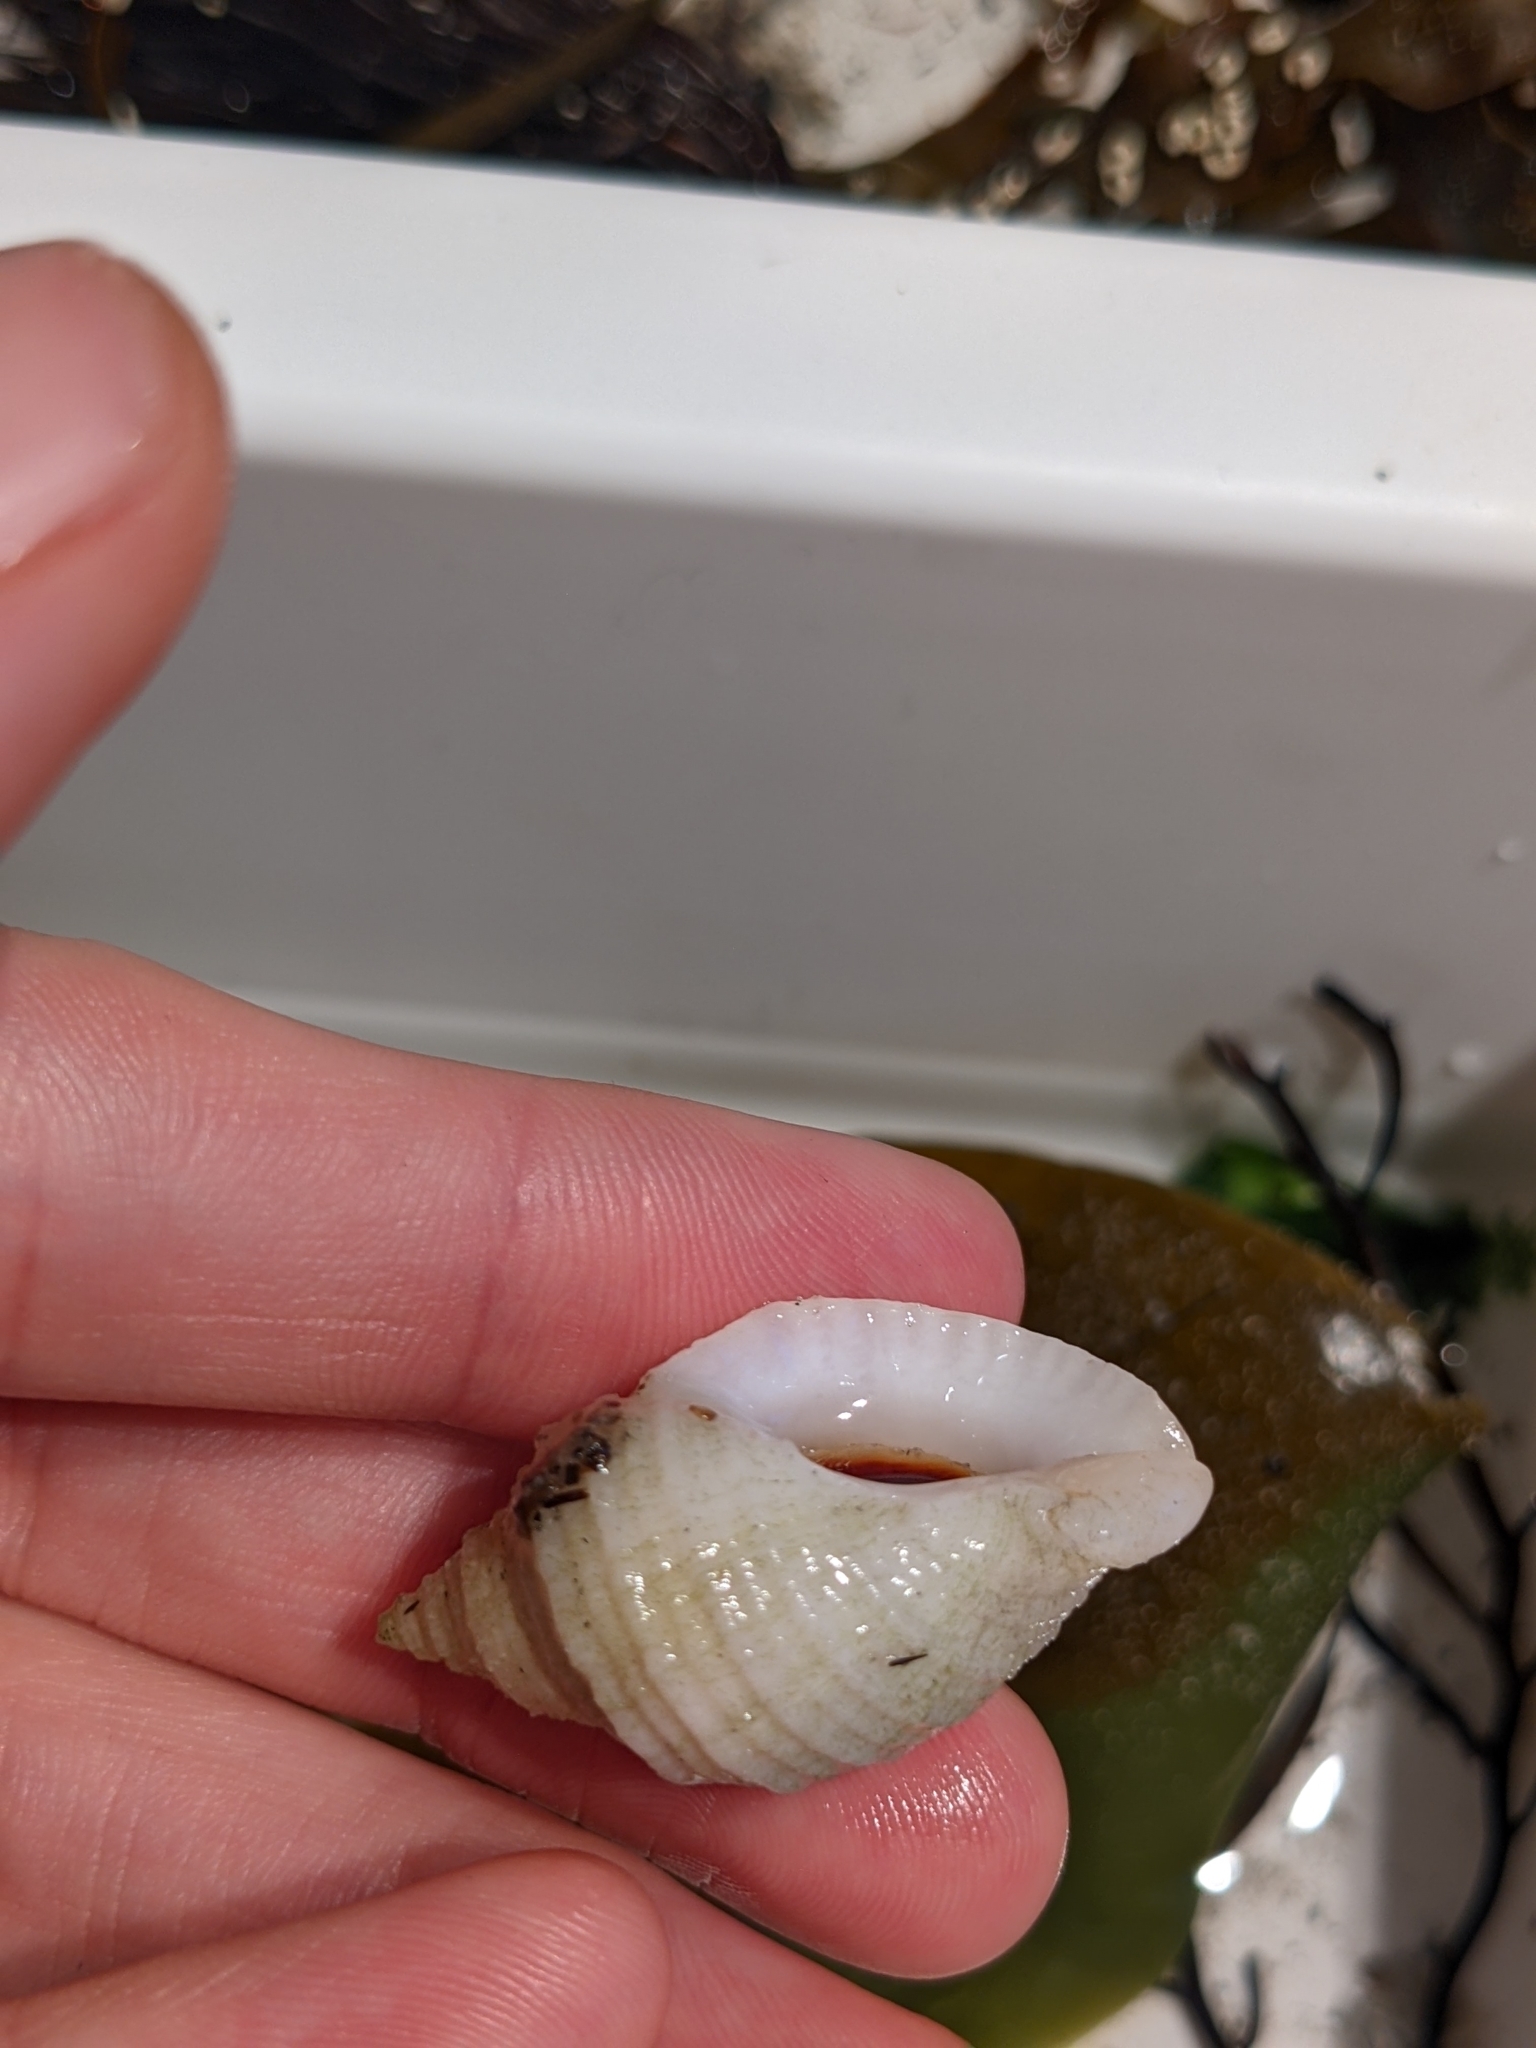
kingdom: Animalia
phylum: Mollusca
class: Gastropoda
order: Neogastropoda
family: Muricidae
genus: Nucella
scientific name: Nucella lapillus
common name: Dog whelk
